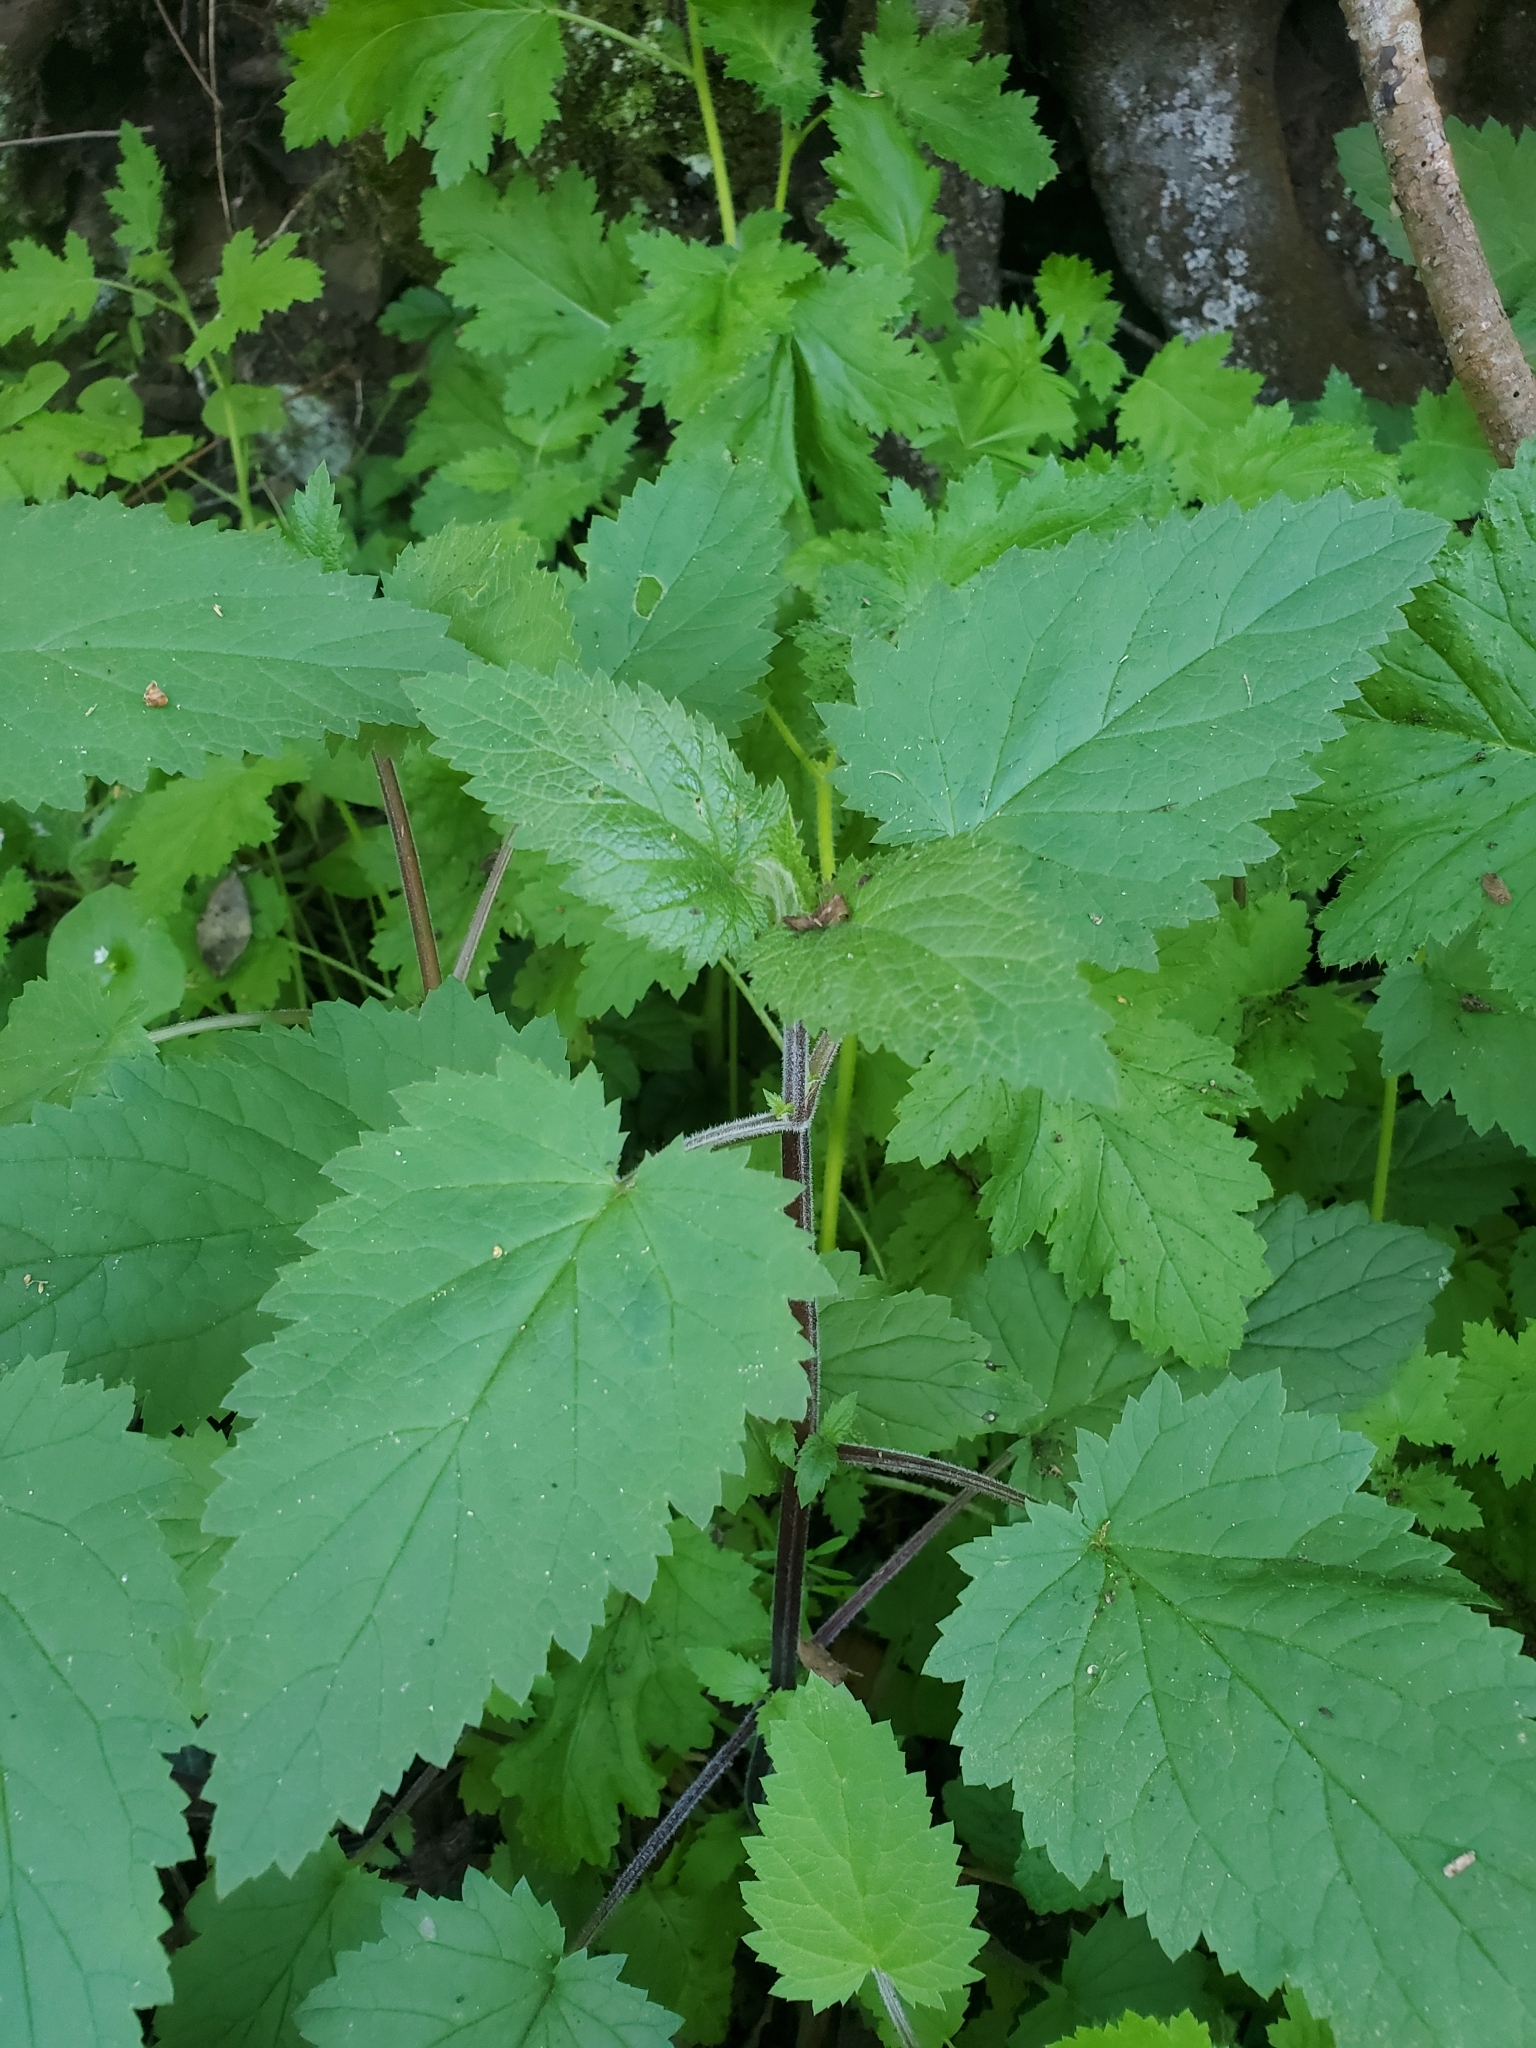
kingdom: Plantae
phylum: Tracheophyta
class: Magnoliopsida
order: Lamiales
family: Scrophulariaceae
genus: Scrophularia
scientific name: Scrophularia californica
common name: California figwort
